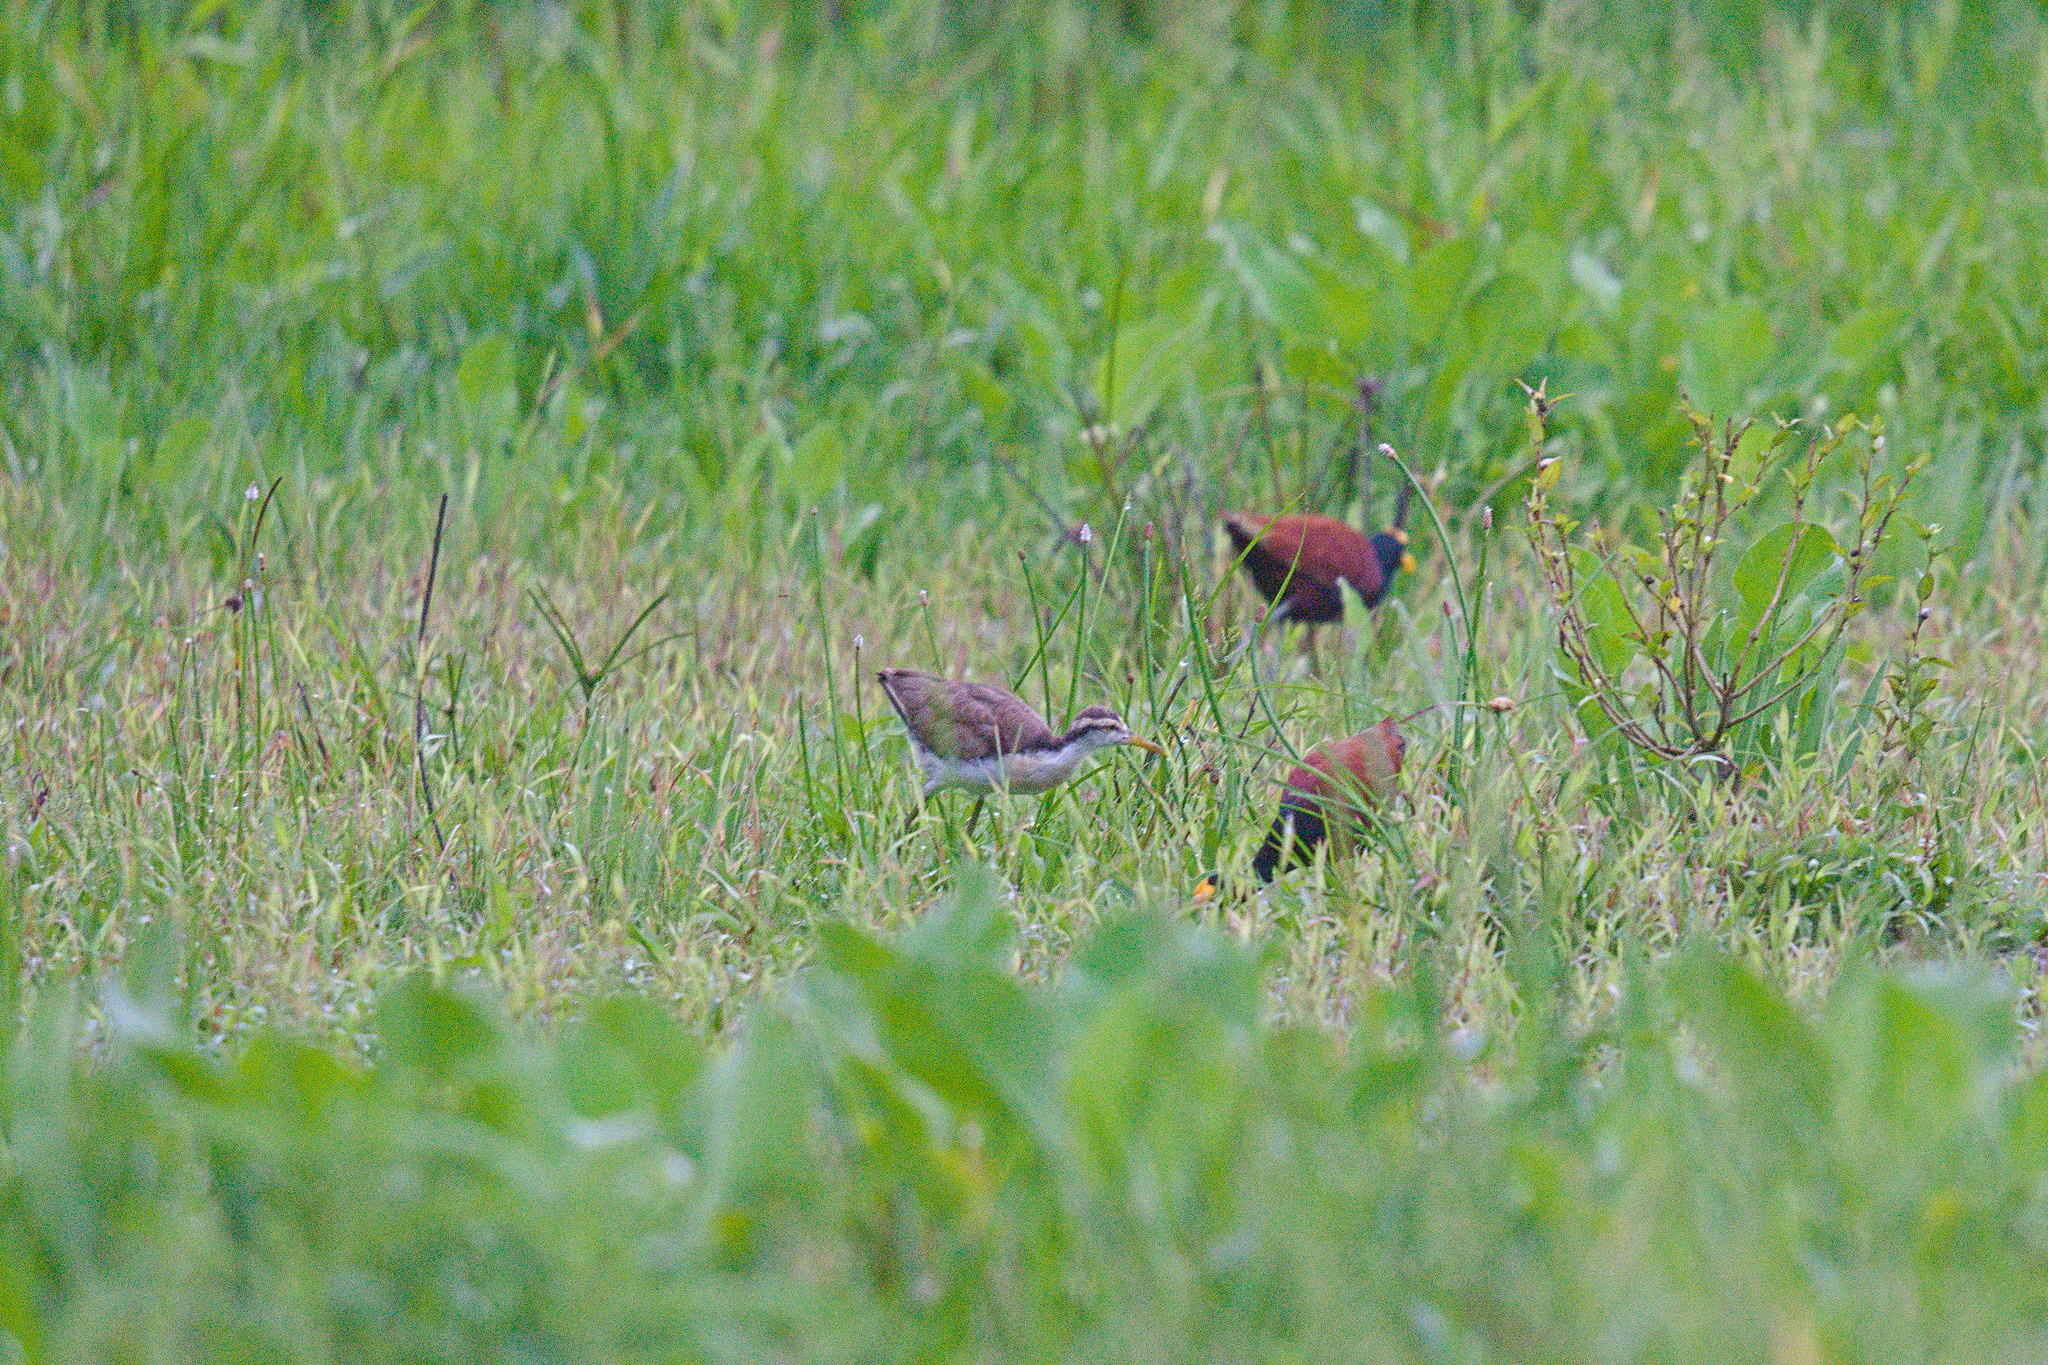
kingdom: Animalia
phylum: Chordata
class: Aves
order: Charadriiformes
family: Jacanidae
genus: Jacana
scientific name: Jacana spinosa
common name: Northern jacana
